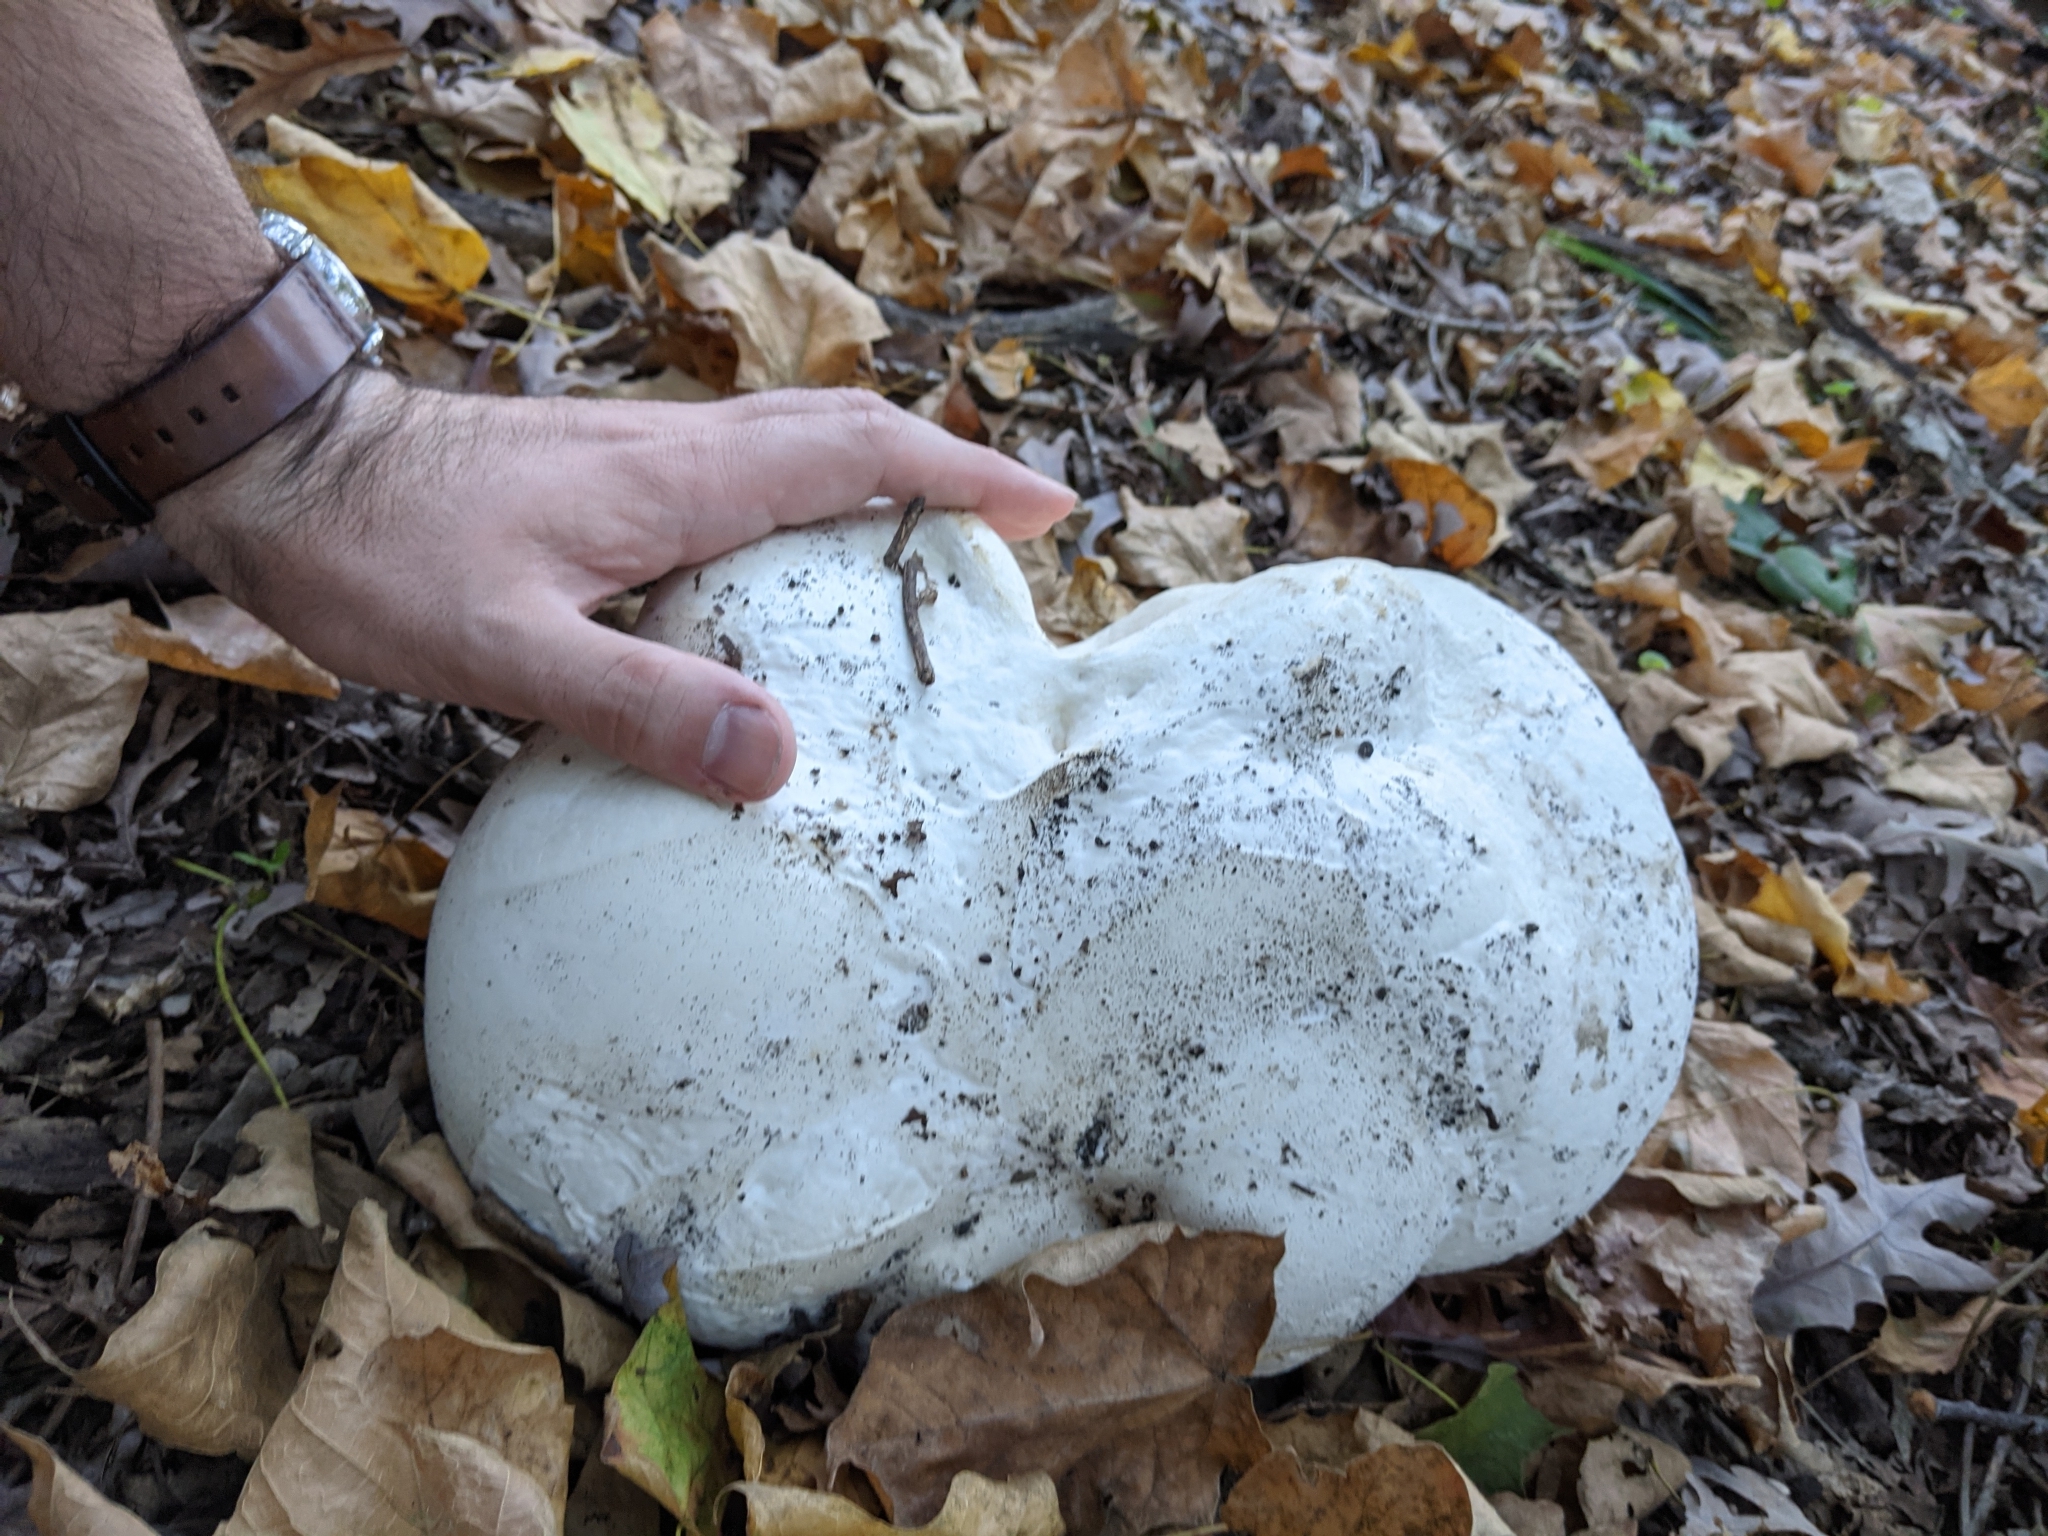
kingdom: Fungi
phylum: Basidiomycota
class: Agaricomycetes
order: Agaricales
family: Lycoperdaceae
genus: Calvatia
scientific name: Calvatia gigantea
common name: Giant puffball
